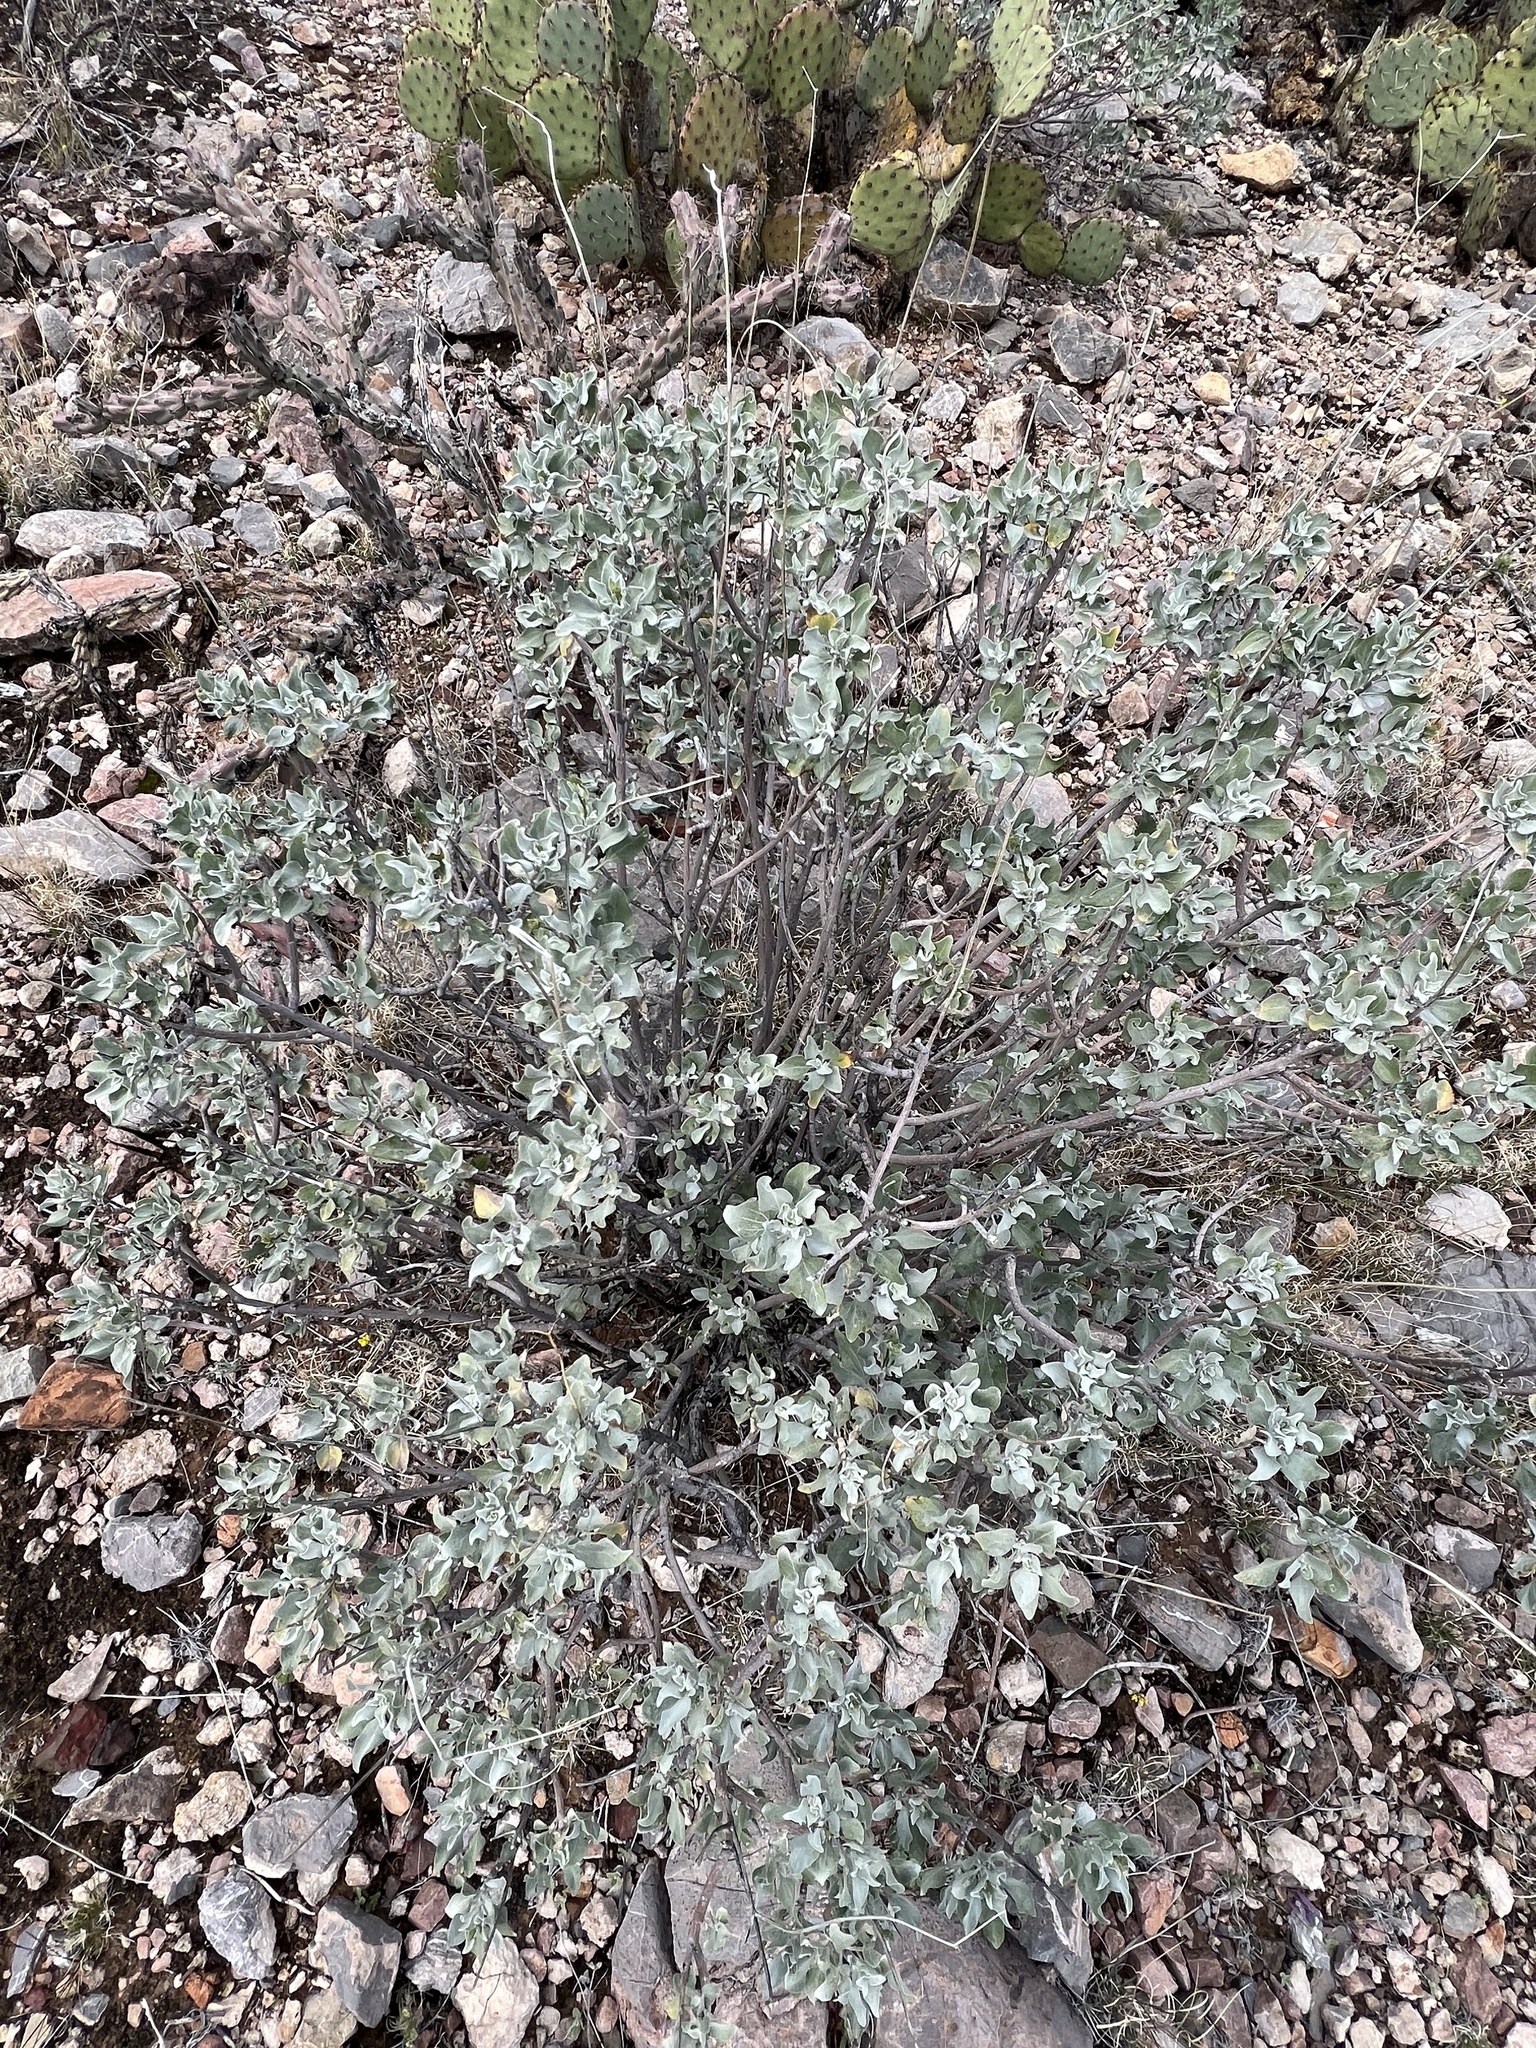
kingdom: Plantae
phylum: Tracheophyta
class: Magnoliopsida
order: Asterales
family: Asteraceae
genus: Encelia
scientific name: Encelia farinosa
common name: Brittlebush
